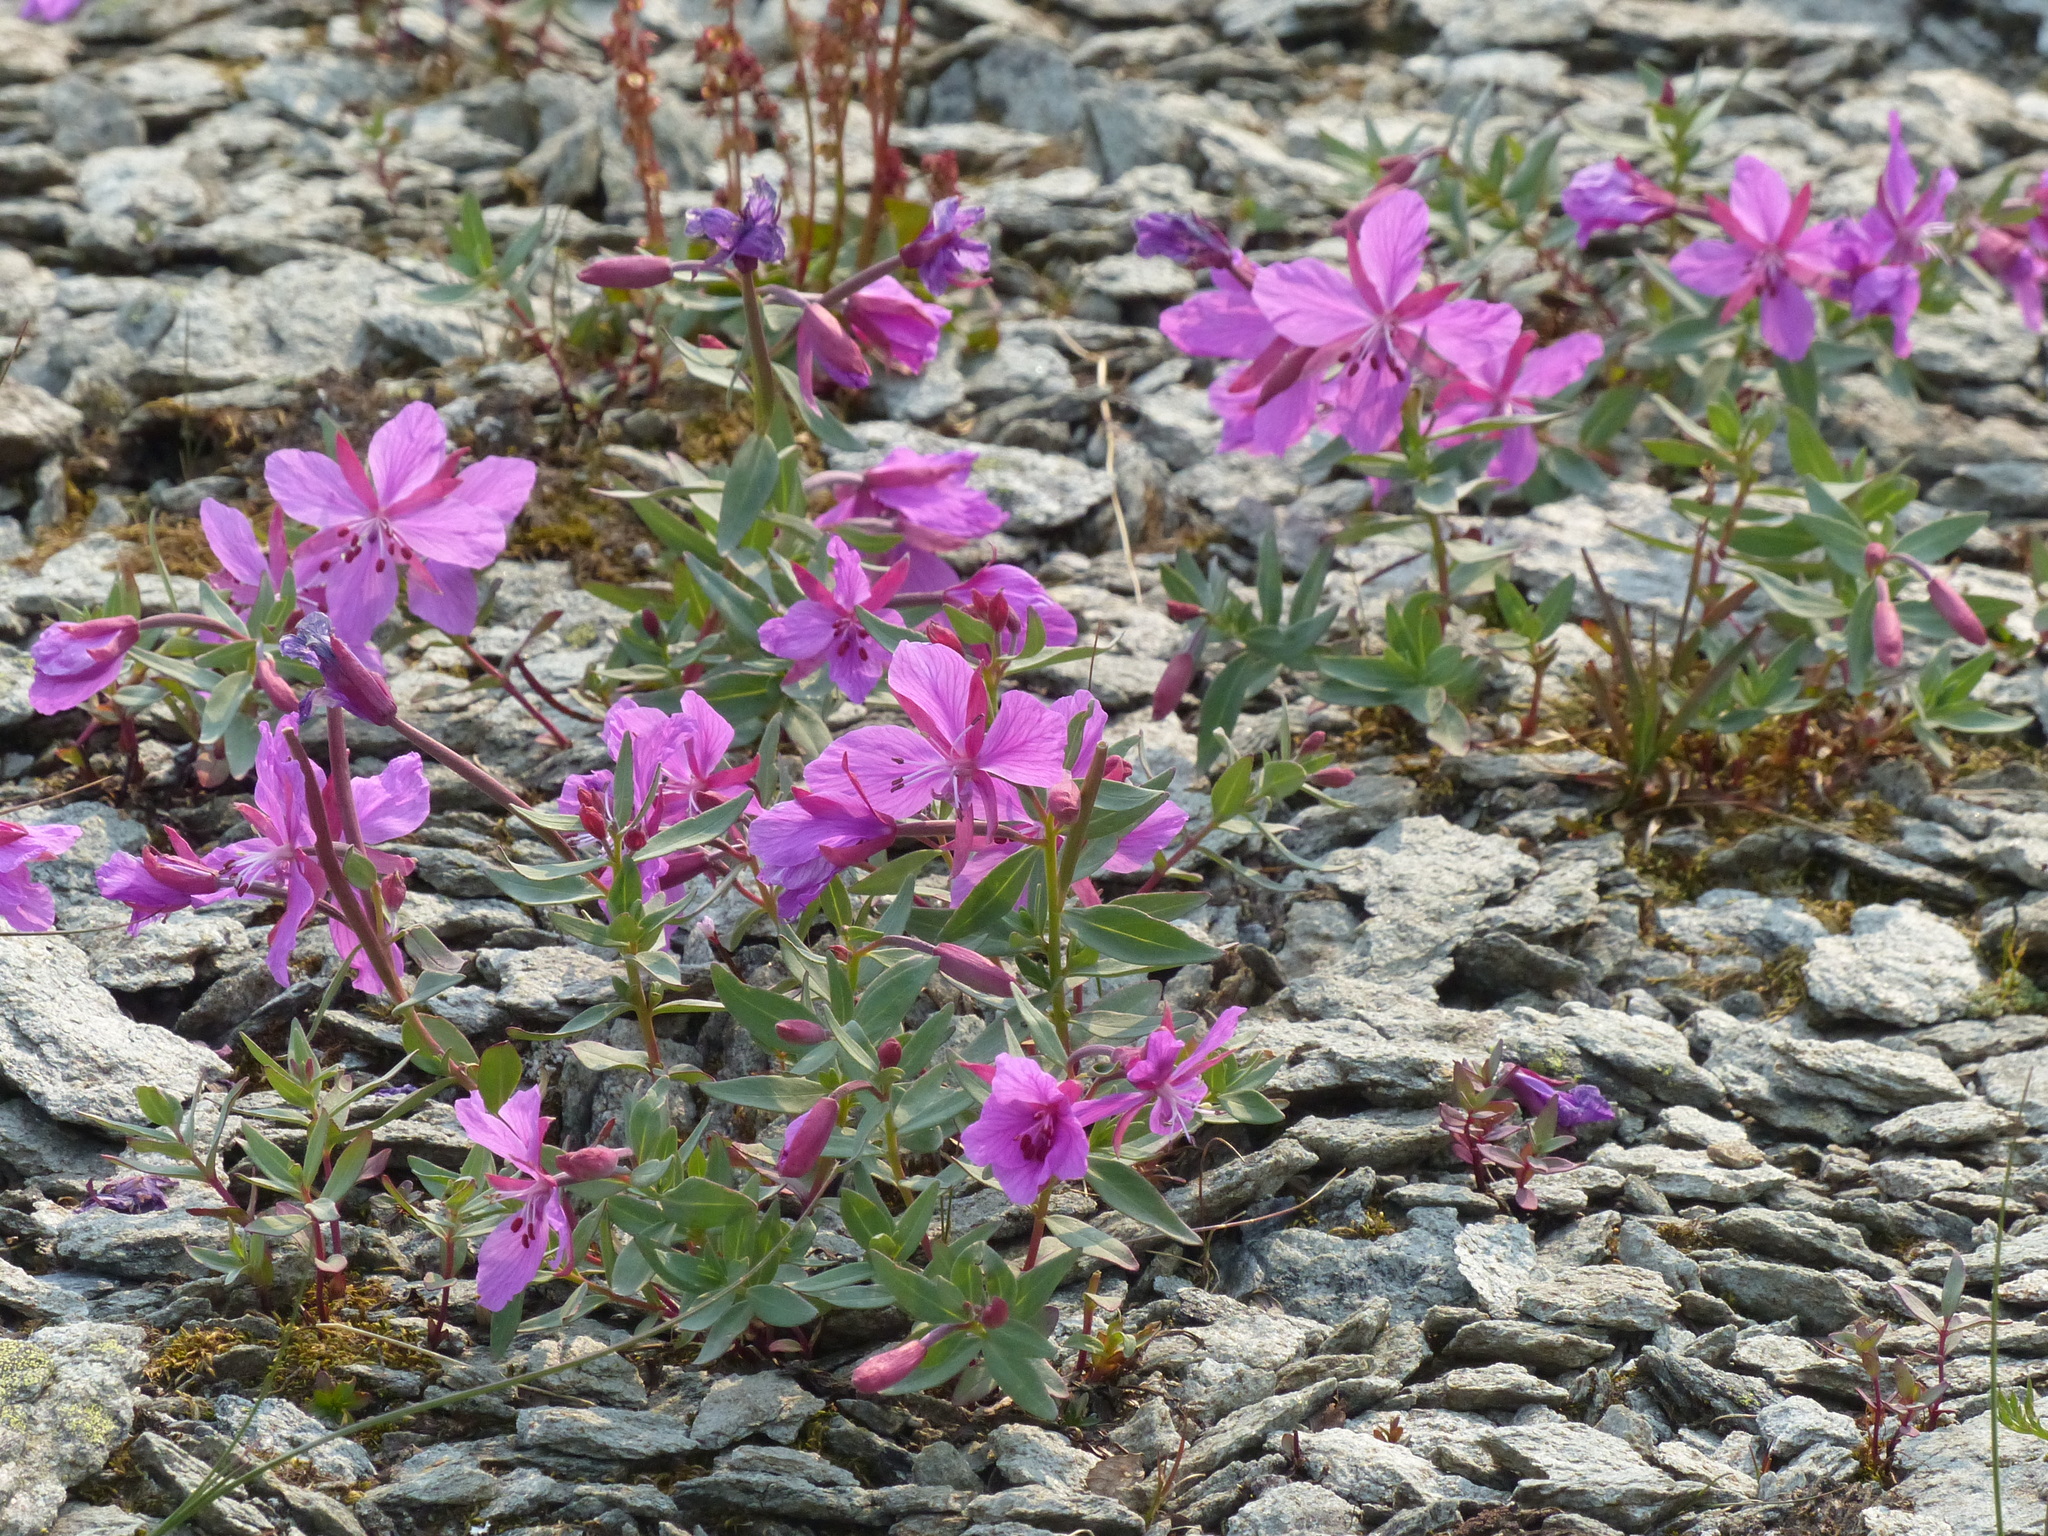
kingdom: Plantae
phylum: Tracheophyta
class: Magnoliopsida
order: Myrtales
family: Onagraceae
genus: Chamaenerion
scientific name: Chamaenerion latifolium
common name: Dwarf fireweed
